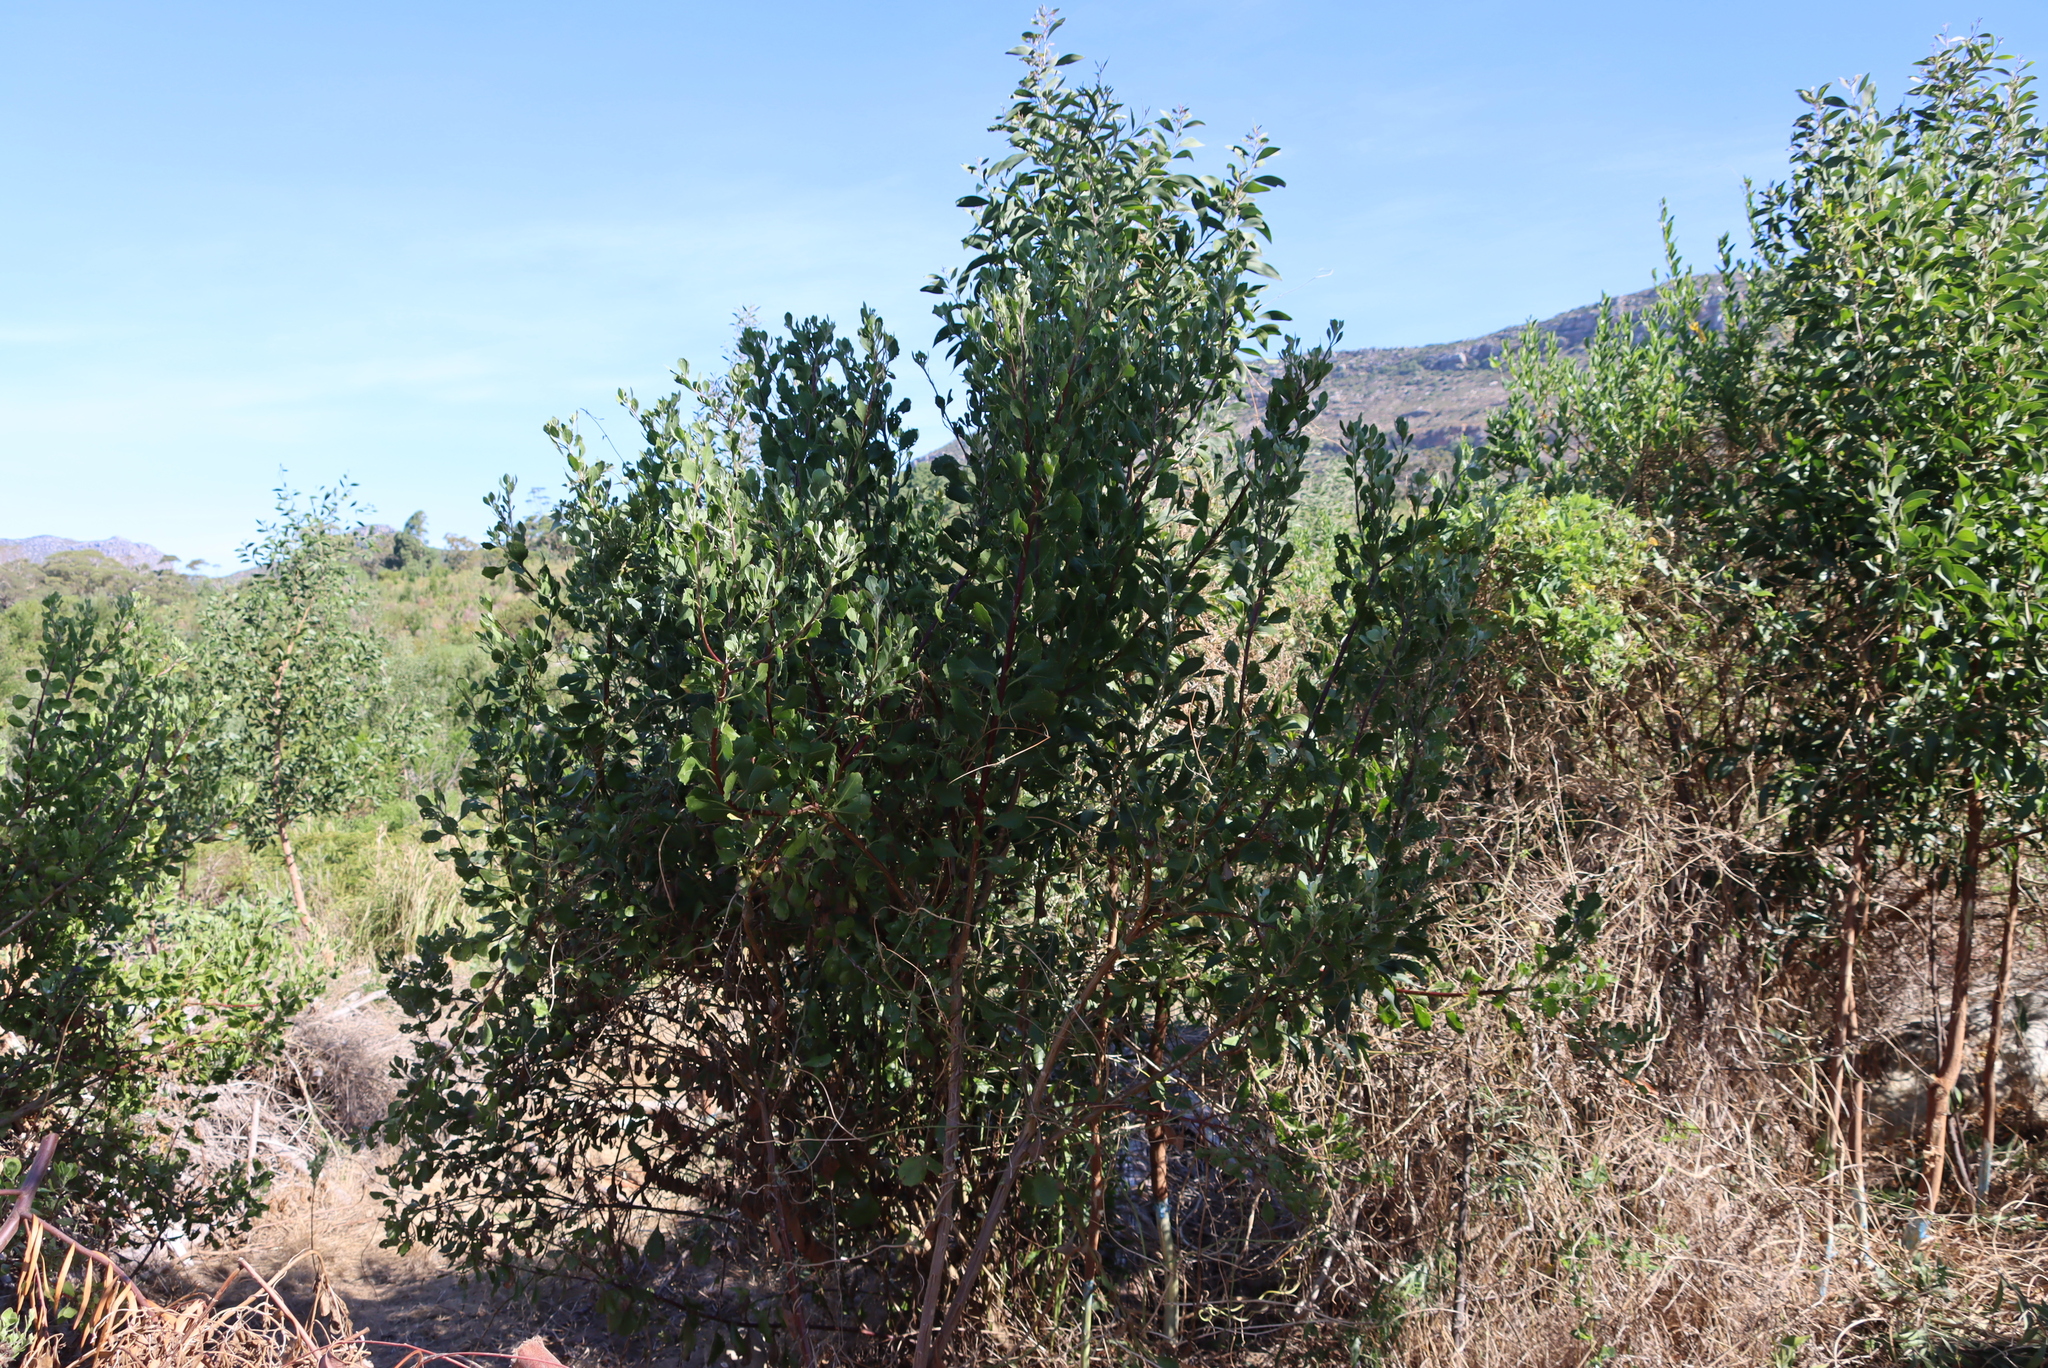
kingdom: Plantae
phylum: Tracheophyta
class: Magnoliopsida
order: Fabales
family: Fabaceae
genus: Acacia
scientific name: Acacia melanoxylon
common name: Blackwood
